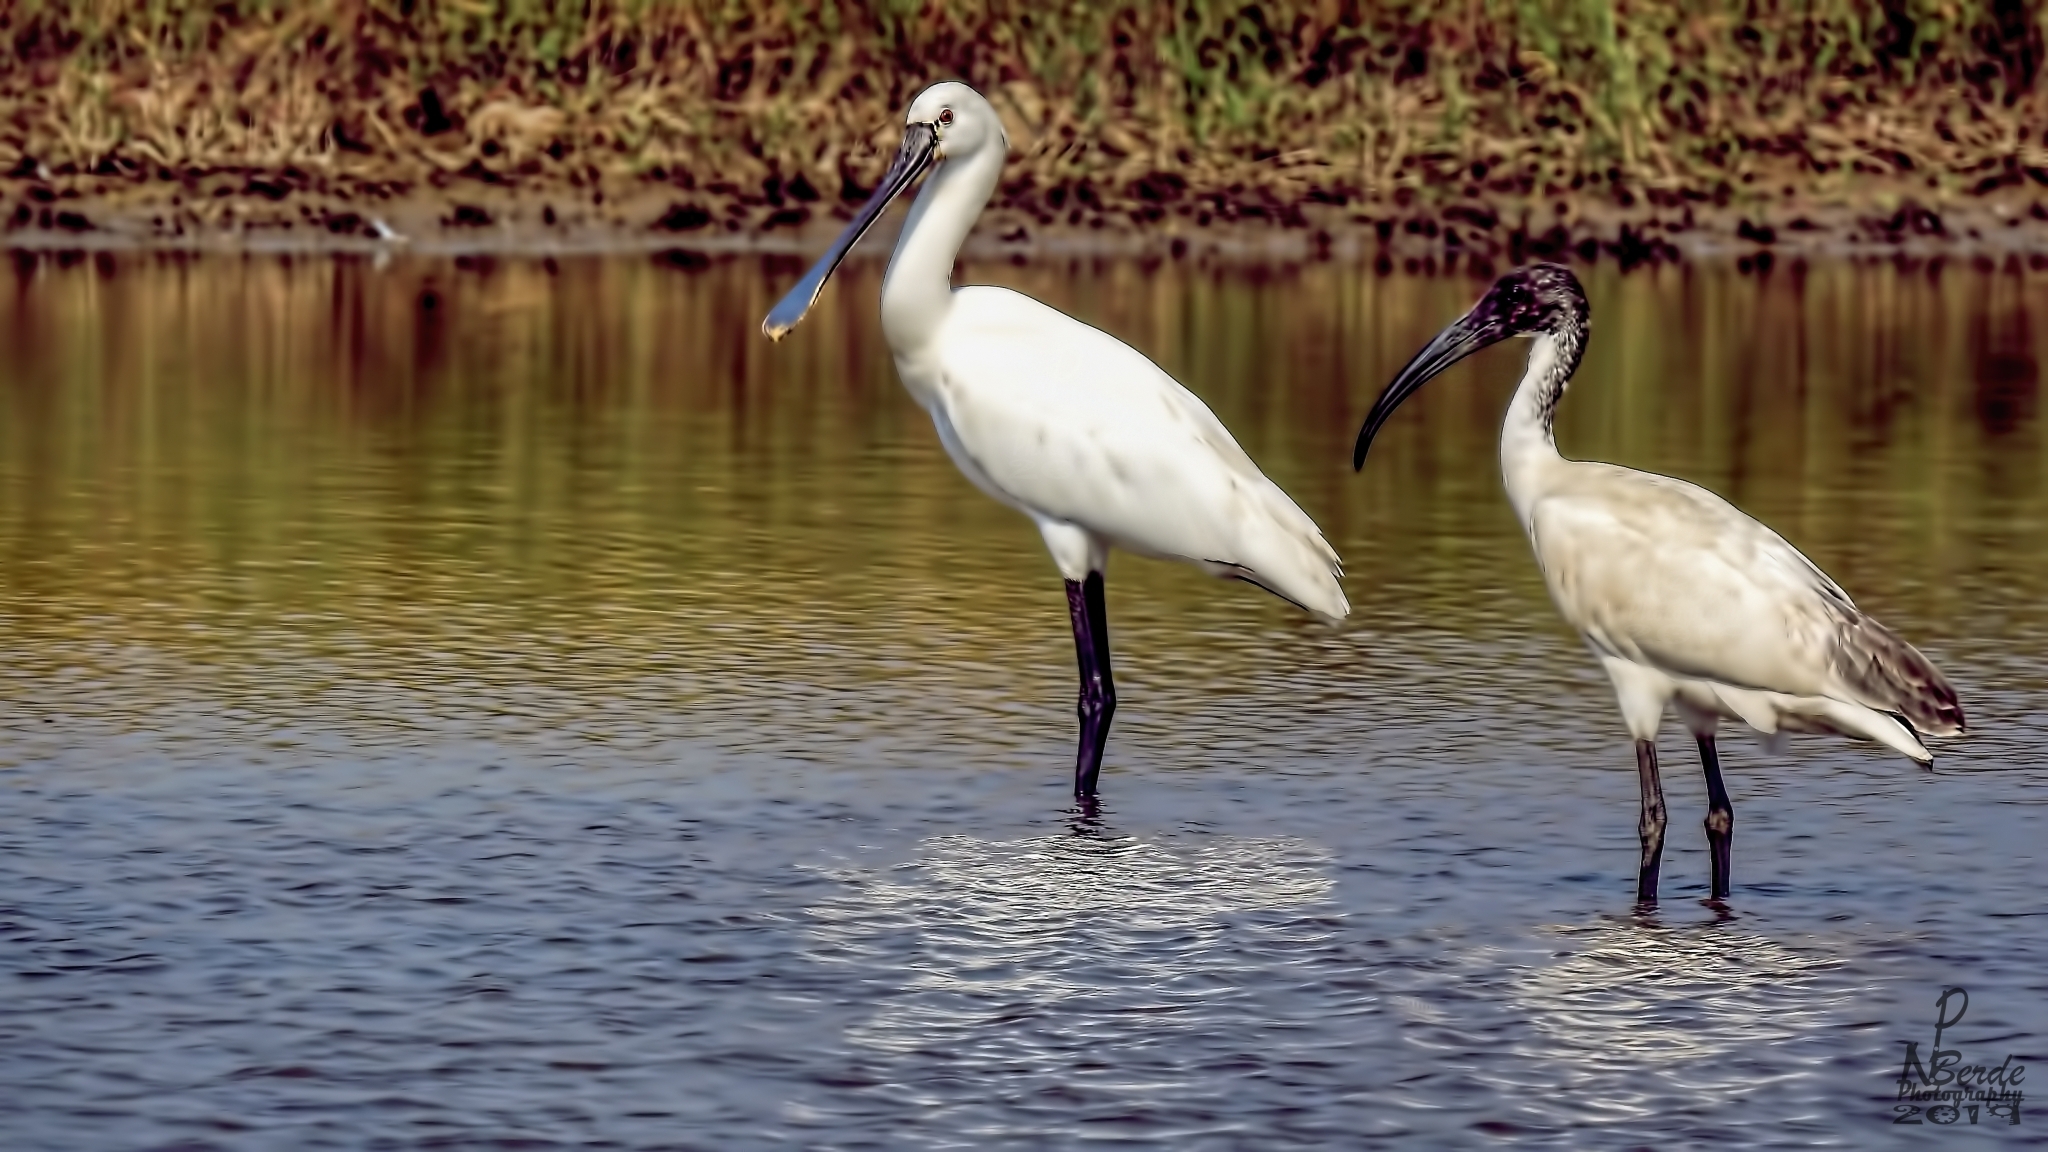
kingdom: Animalia
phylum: Chordata
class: Aves
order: Pelecaniformes
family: Threskiornithidae
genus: Platalea
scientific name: Platalea leucorodia
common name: Eurasian spoonbill
